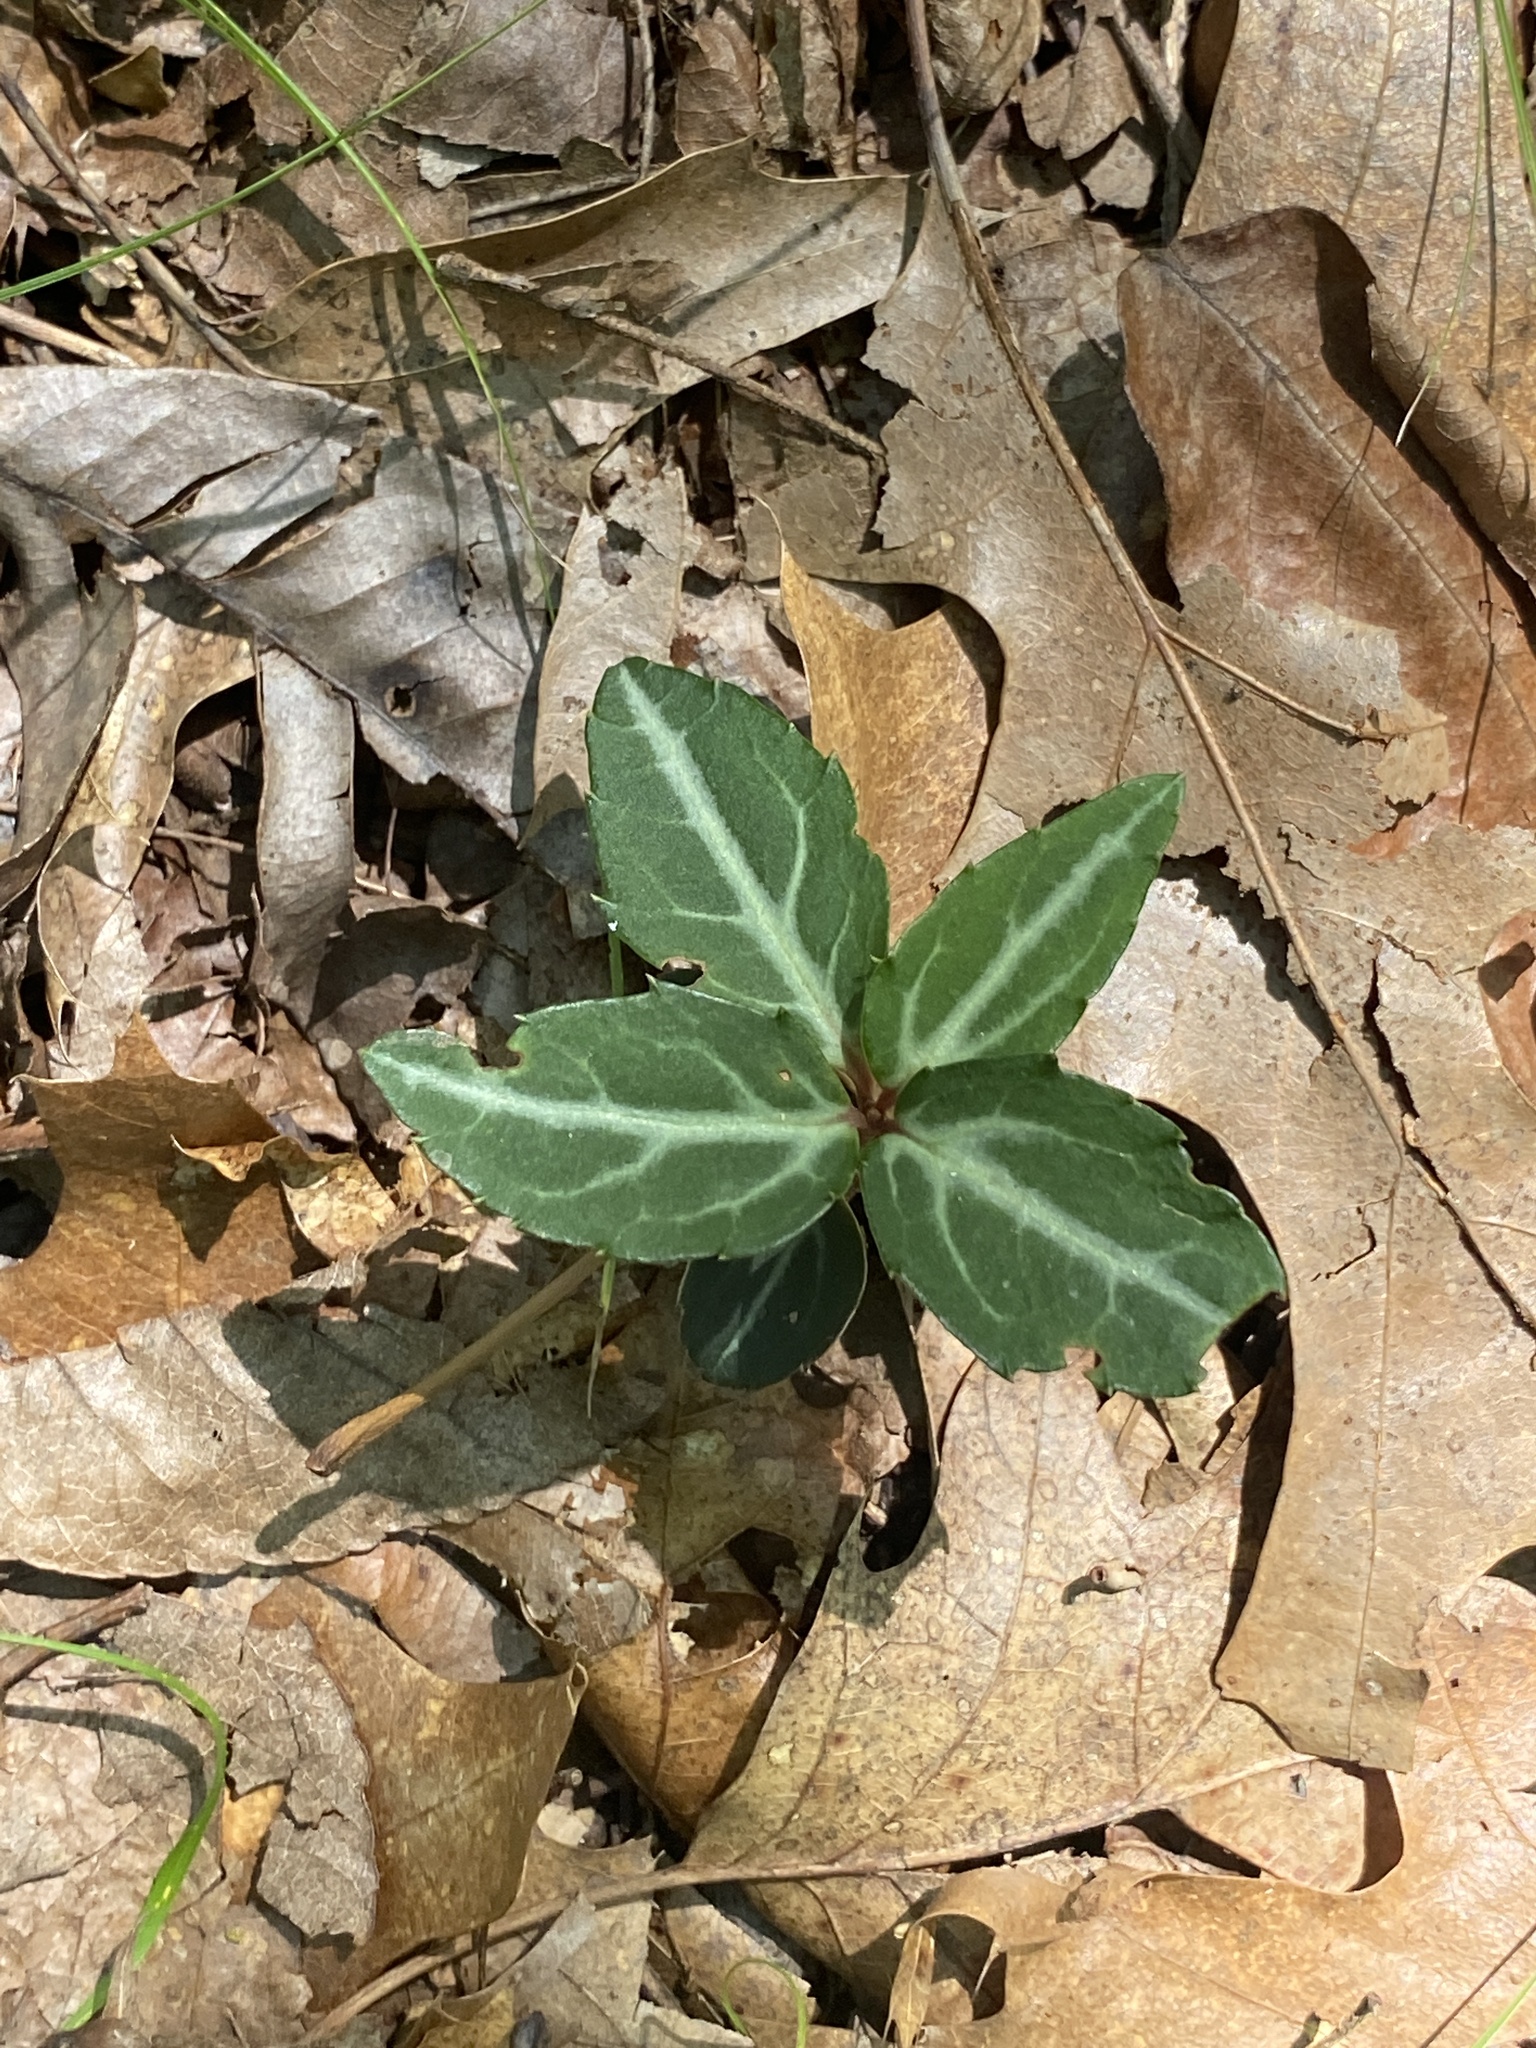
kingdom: Plantae
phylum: Tracheophyta
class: Magnoliopsida
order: Ericales
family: Ericaceae
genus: Chimaphila
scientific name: Chimaphila maculata
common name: Spotted pipsissewa
